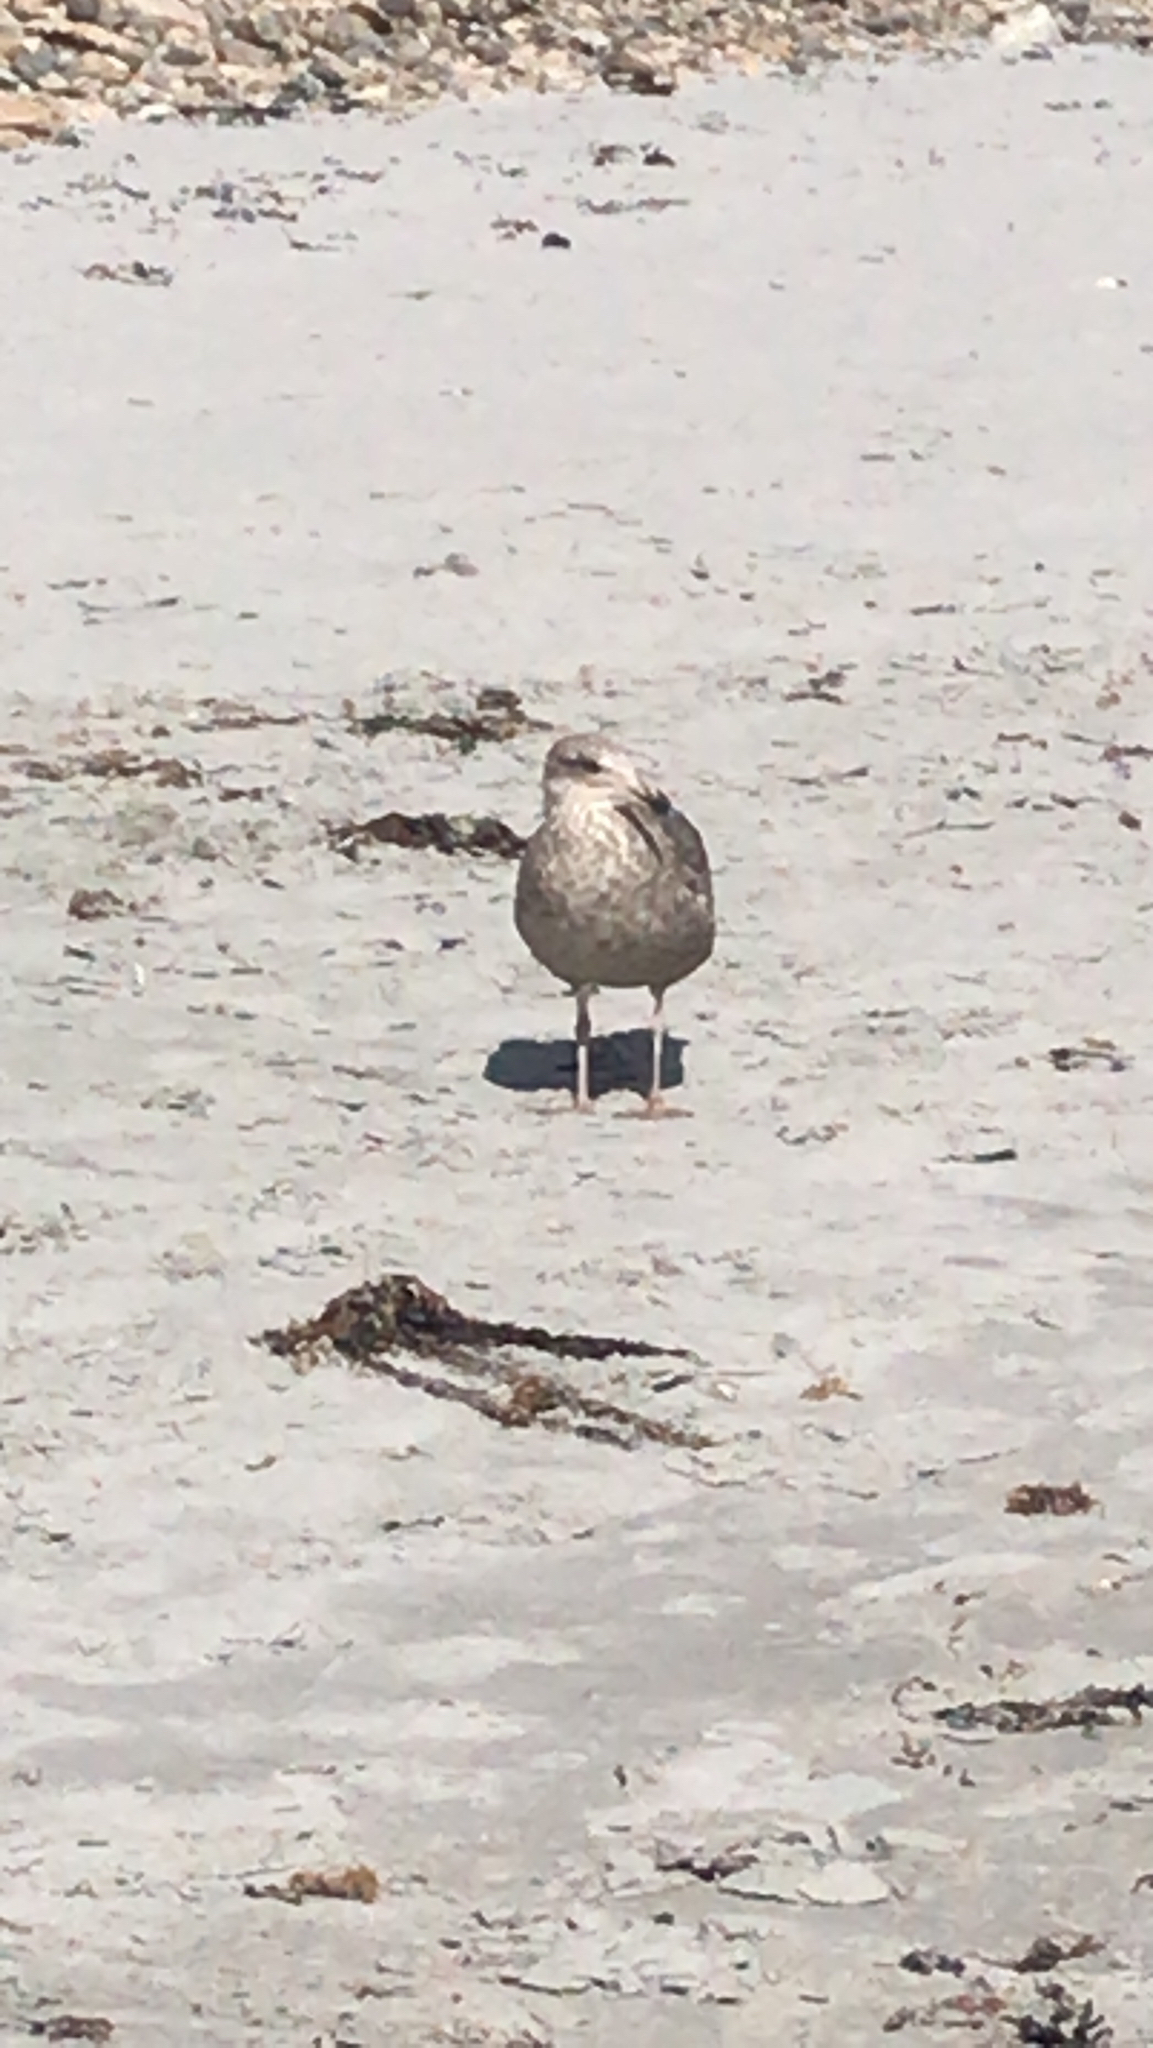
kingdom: Animalia
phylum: Chordata
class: Aves
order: Charadriiformes
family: Laridae
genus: Larus
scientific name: Larus argentatus
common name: Herring gull
